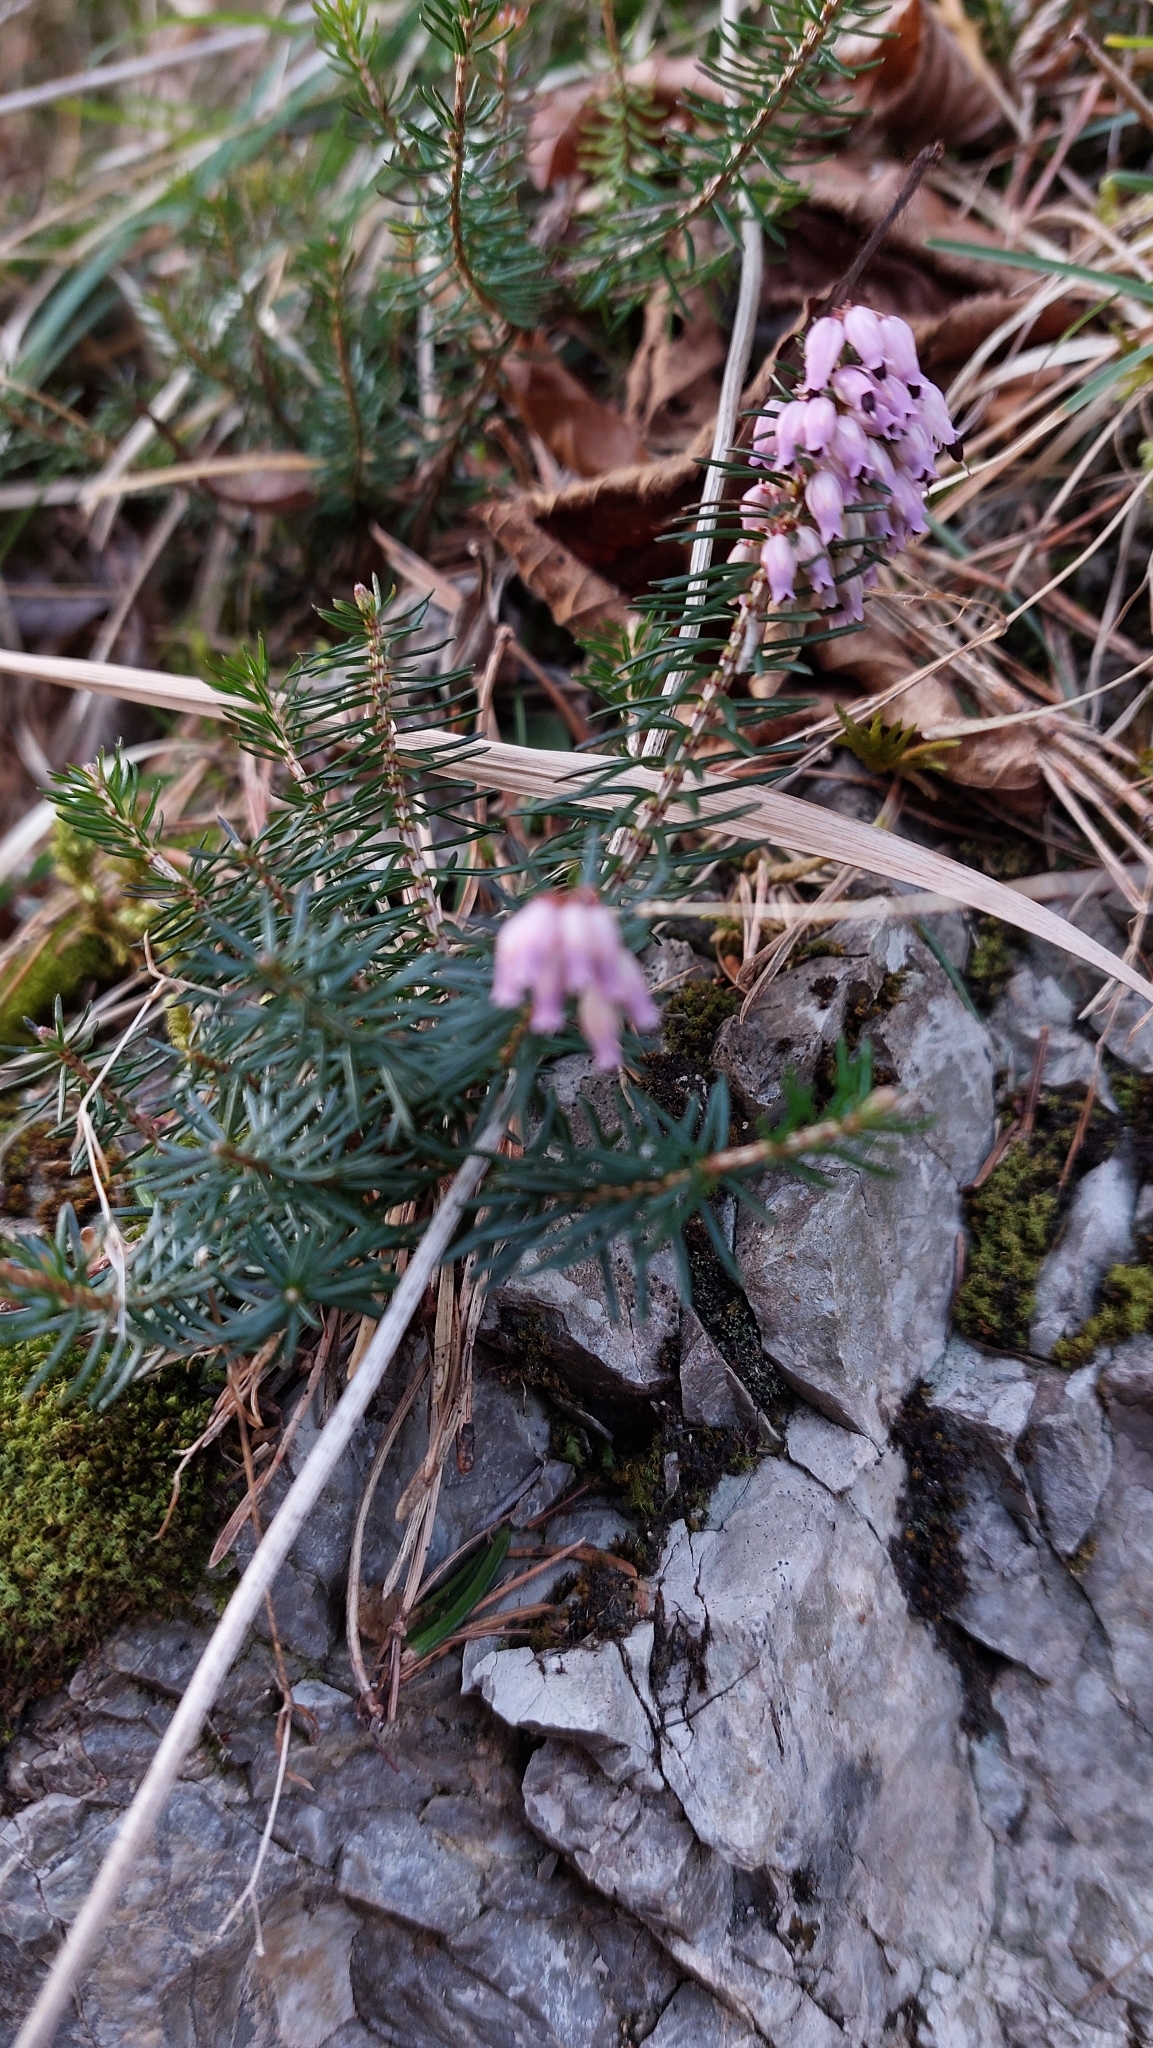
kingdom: Plantae
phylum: Tracheophyta
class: Magnoliopsida
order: Ericales
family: Ericaceae
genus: Erica
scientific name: Erica carnea
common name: Winter heath
